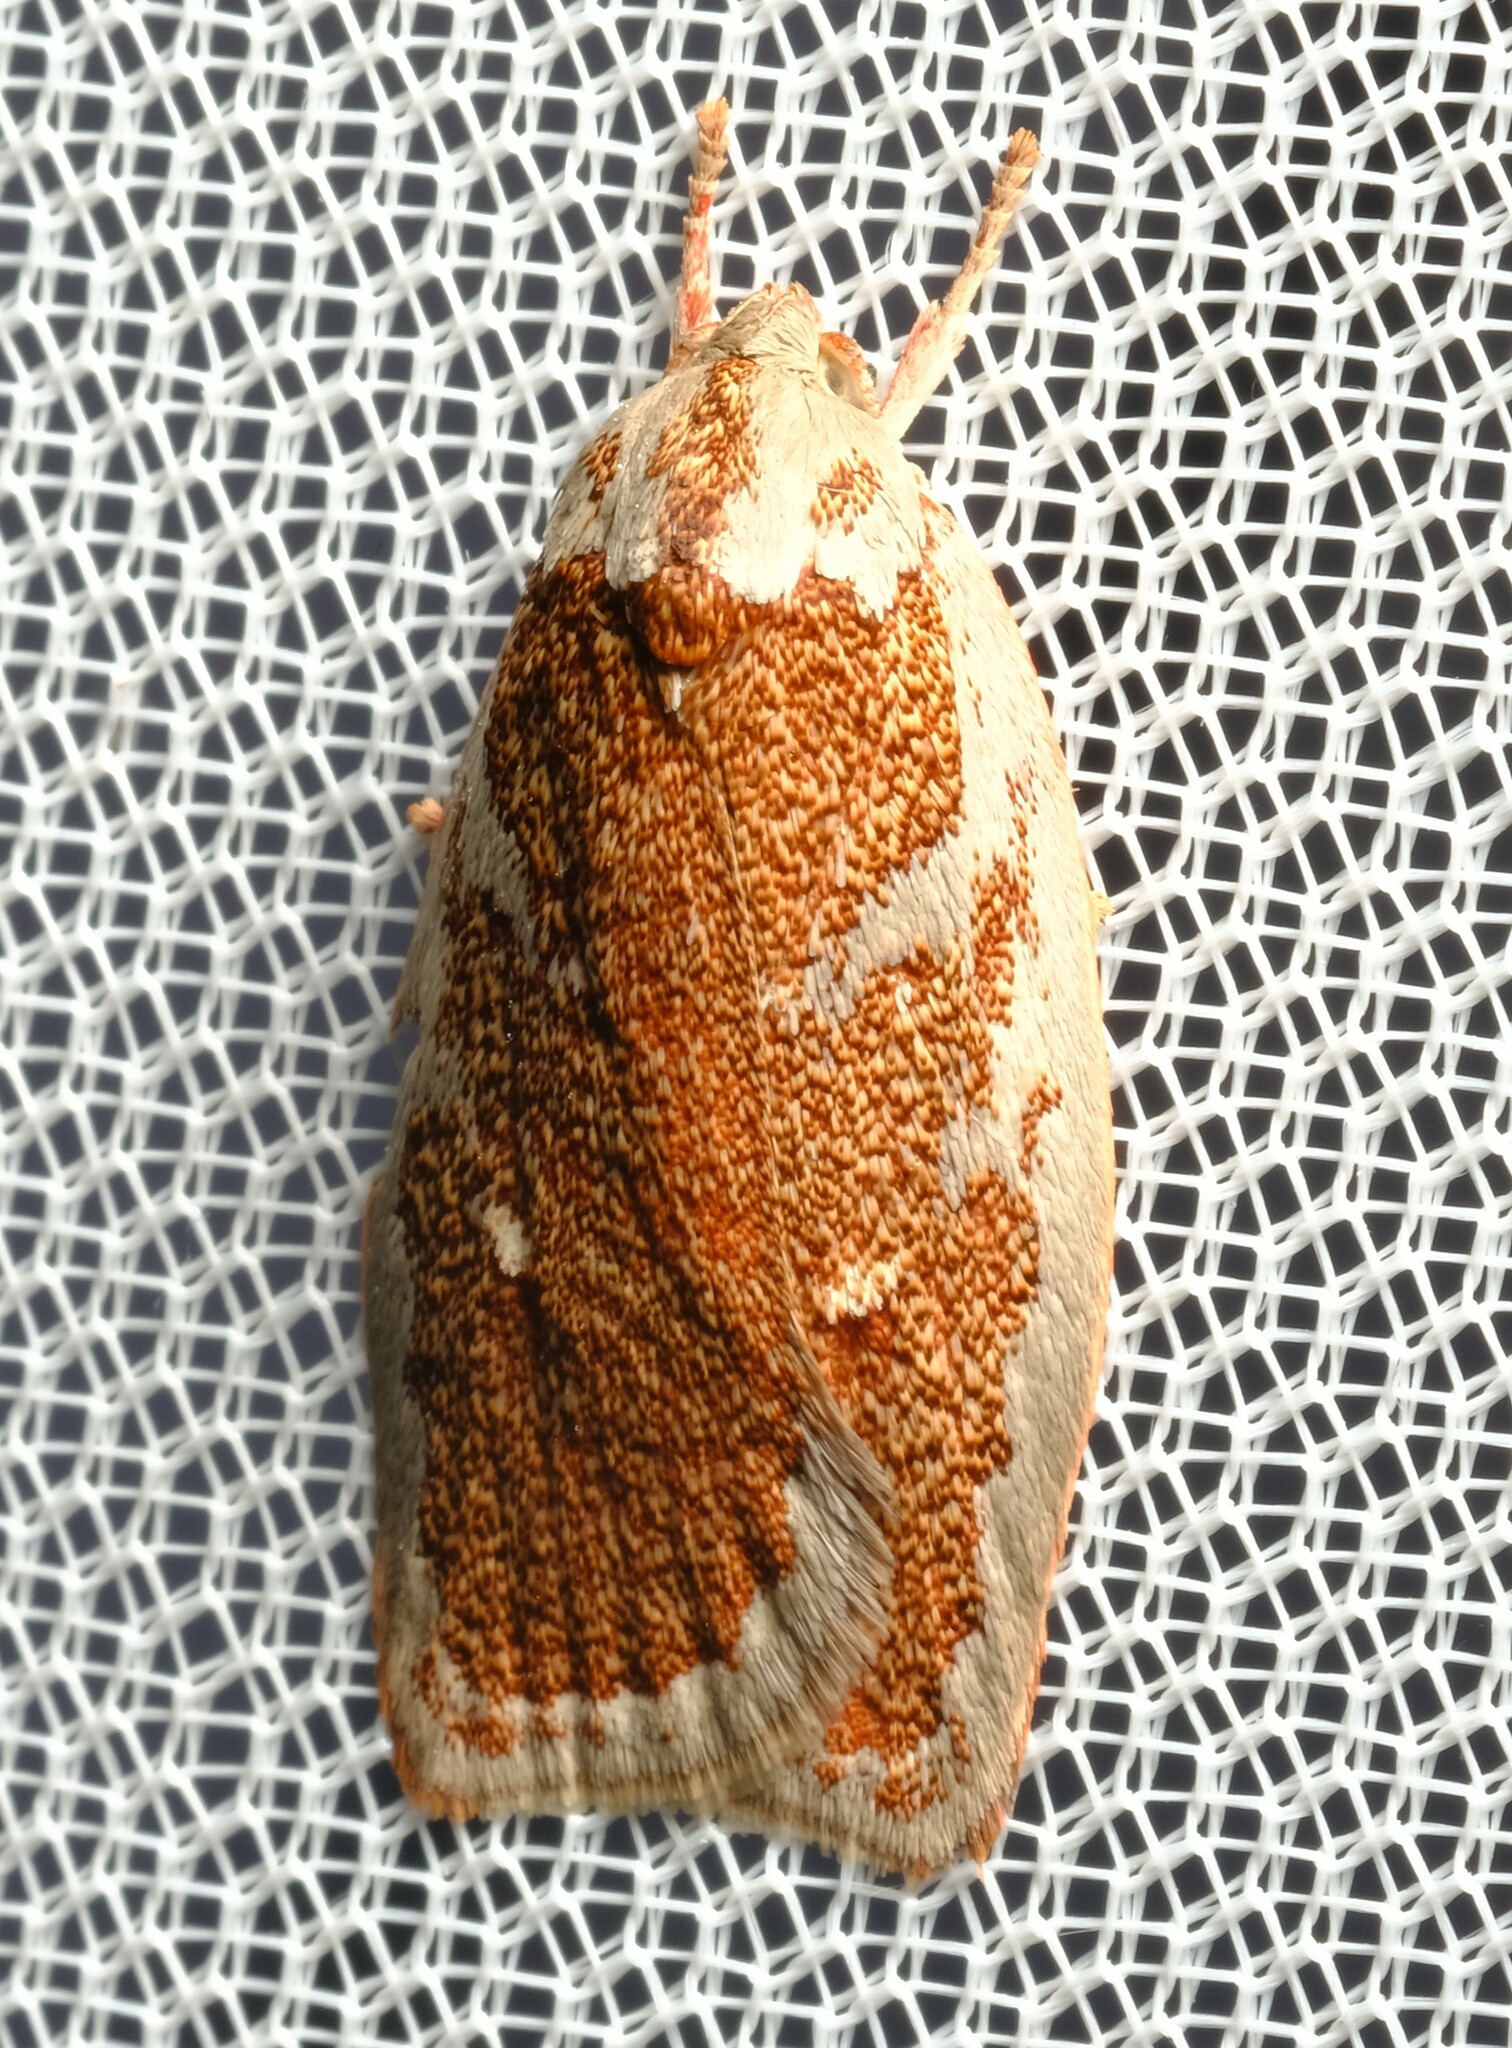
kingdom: Animalia
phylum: Arthropoda
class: Insecta
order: Lepidoptera
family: Oecophoridae
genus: Euchaetis
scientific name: Euchaetis rhizobola
